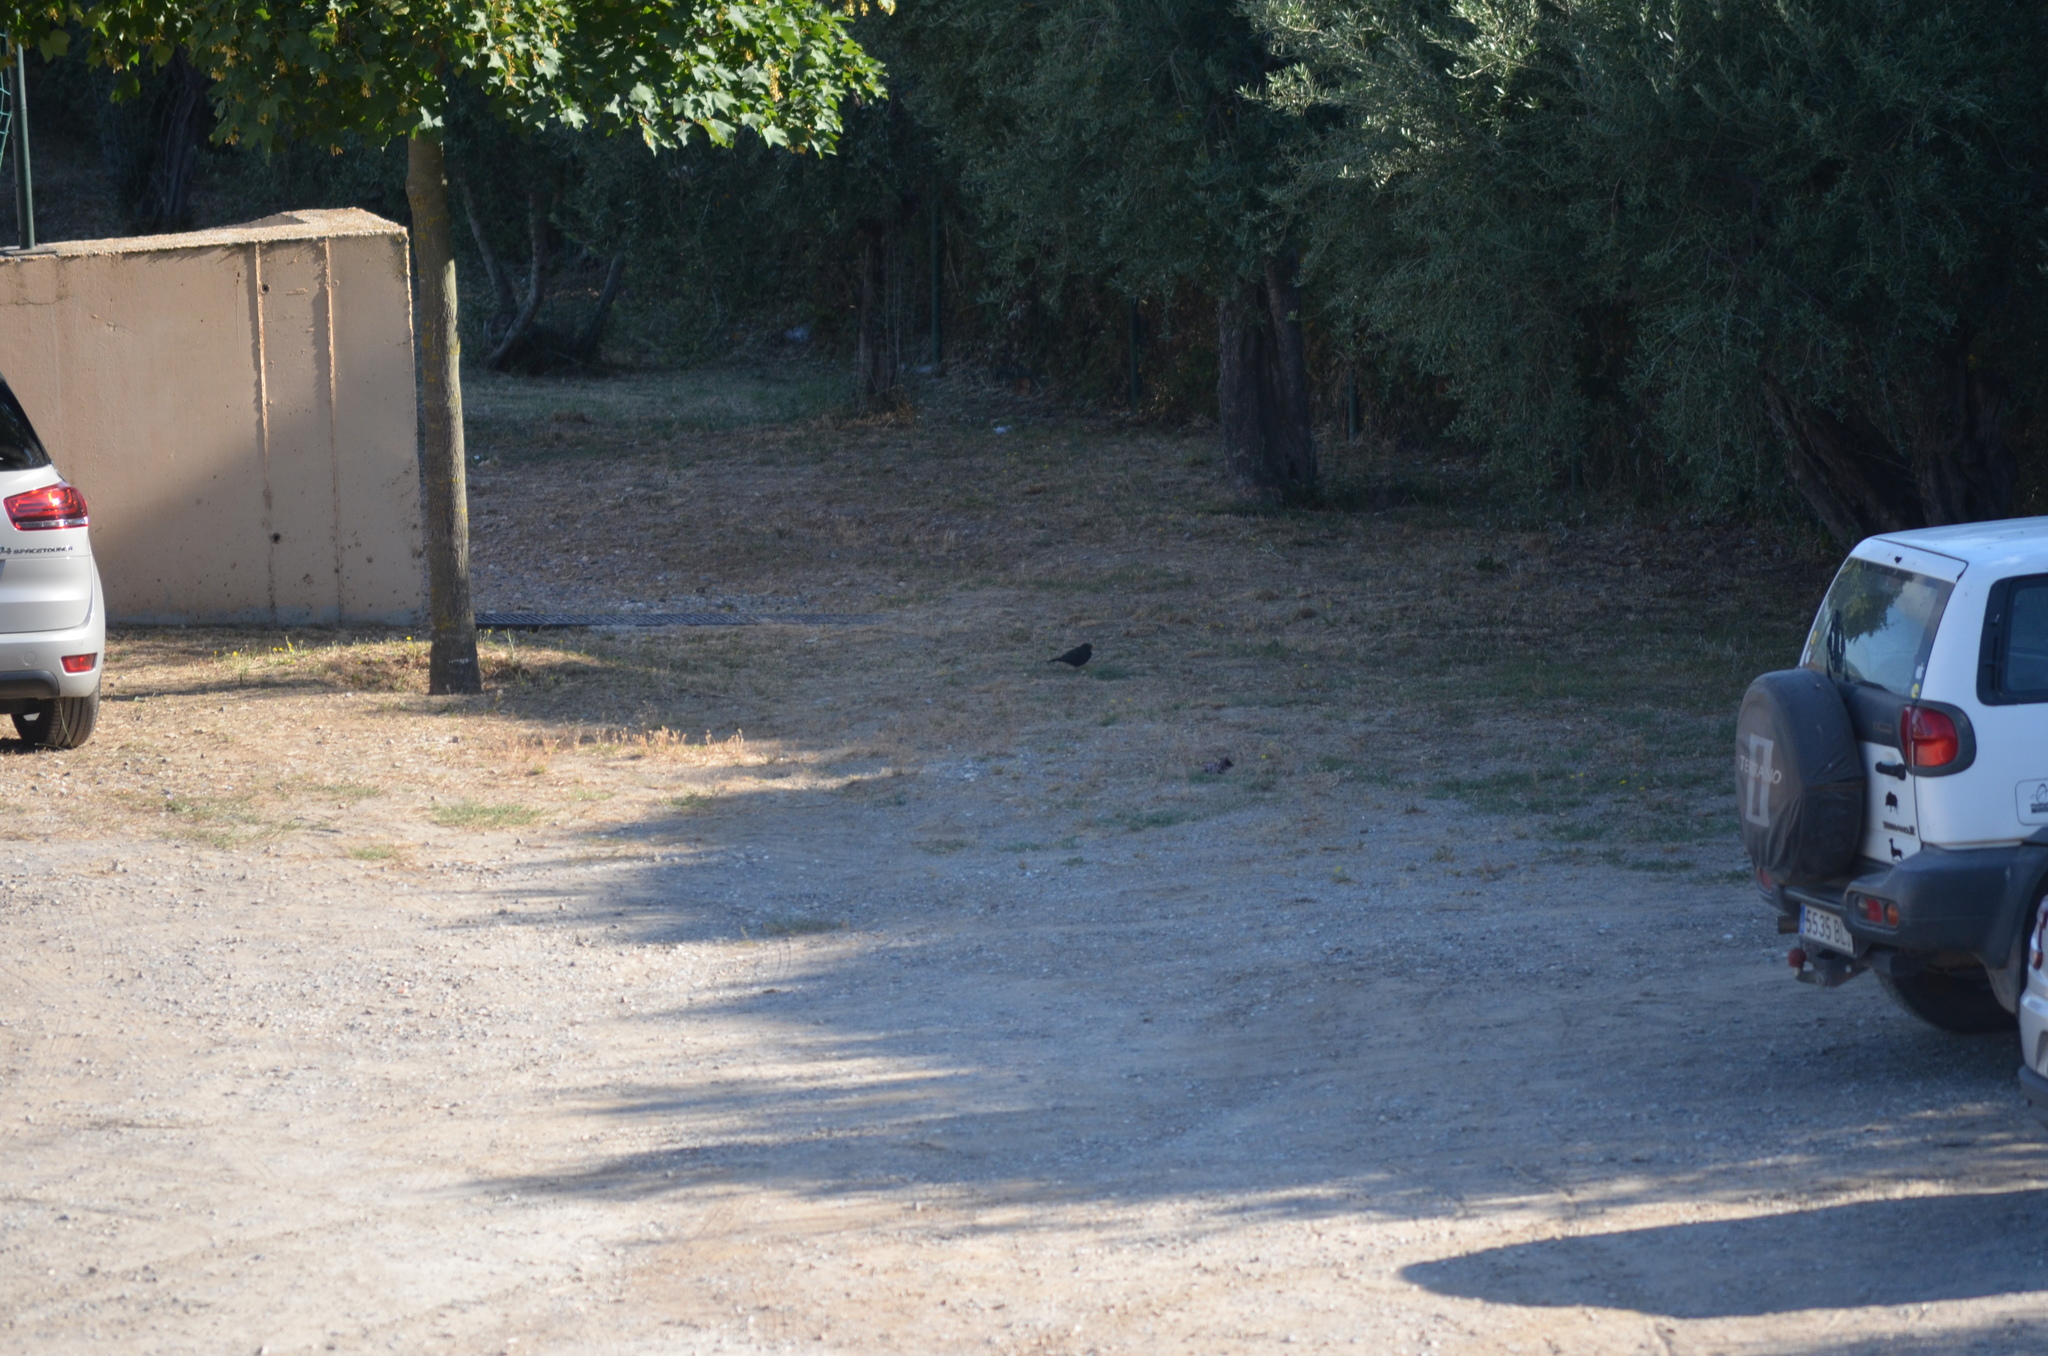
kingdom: Animalia
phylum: Chordata
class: Aves
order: Passeriformes
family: Turdidae
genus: Turdus
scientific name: Turdus merula
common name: Common blackbird
